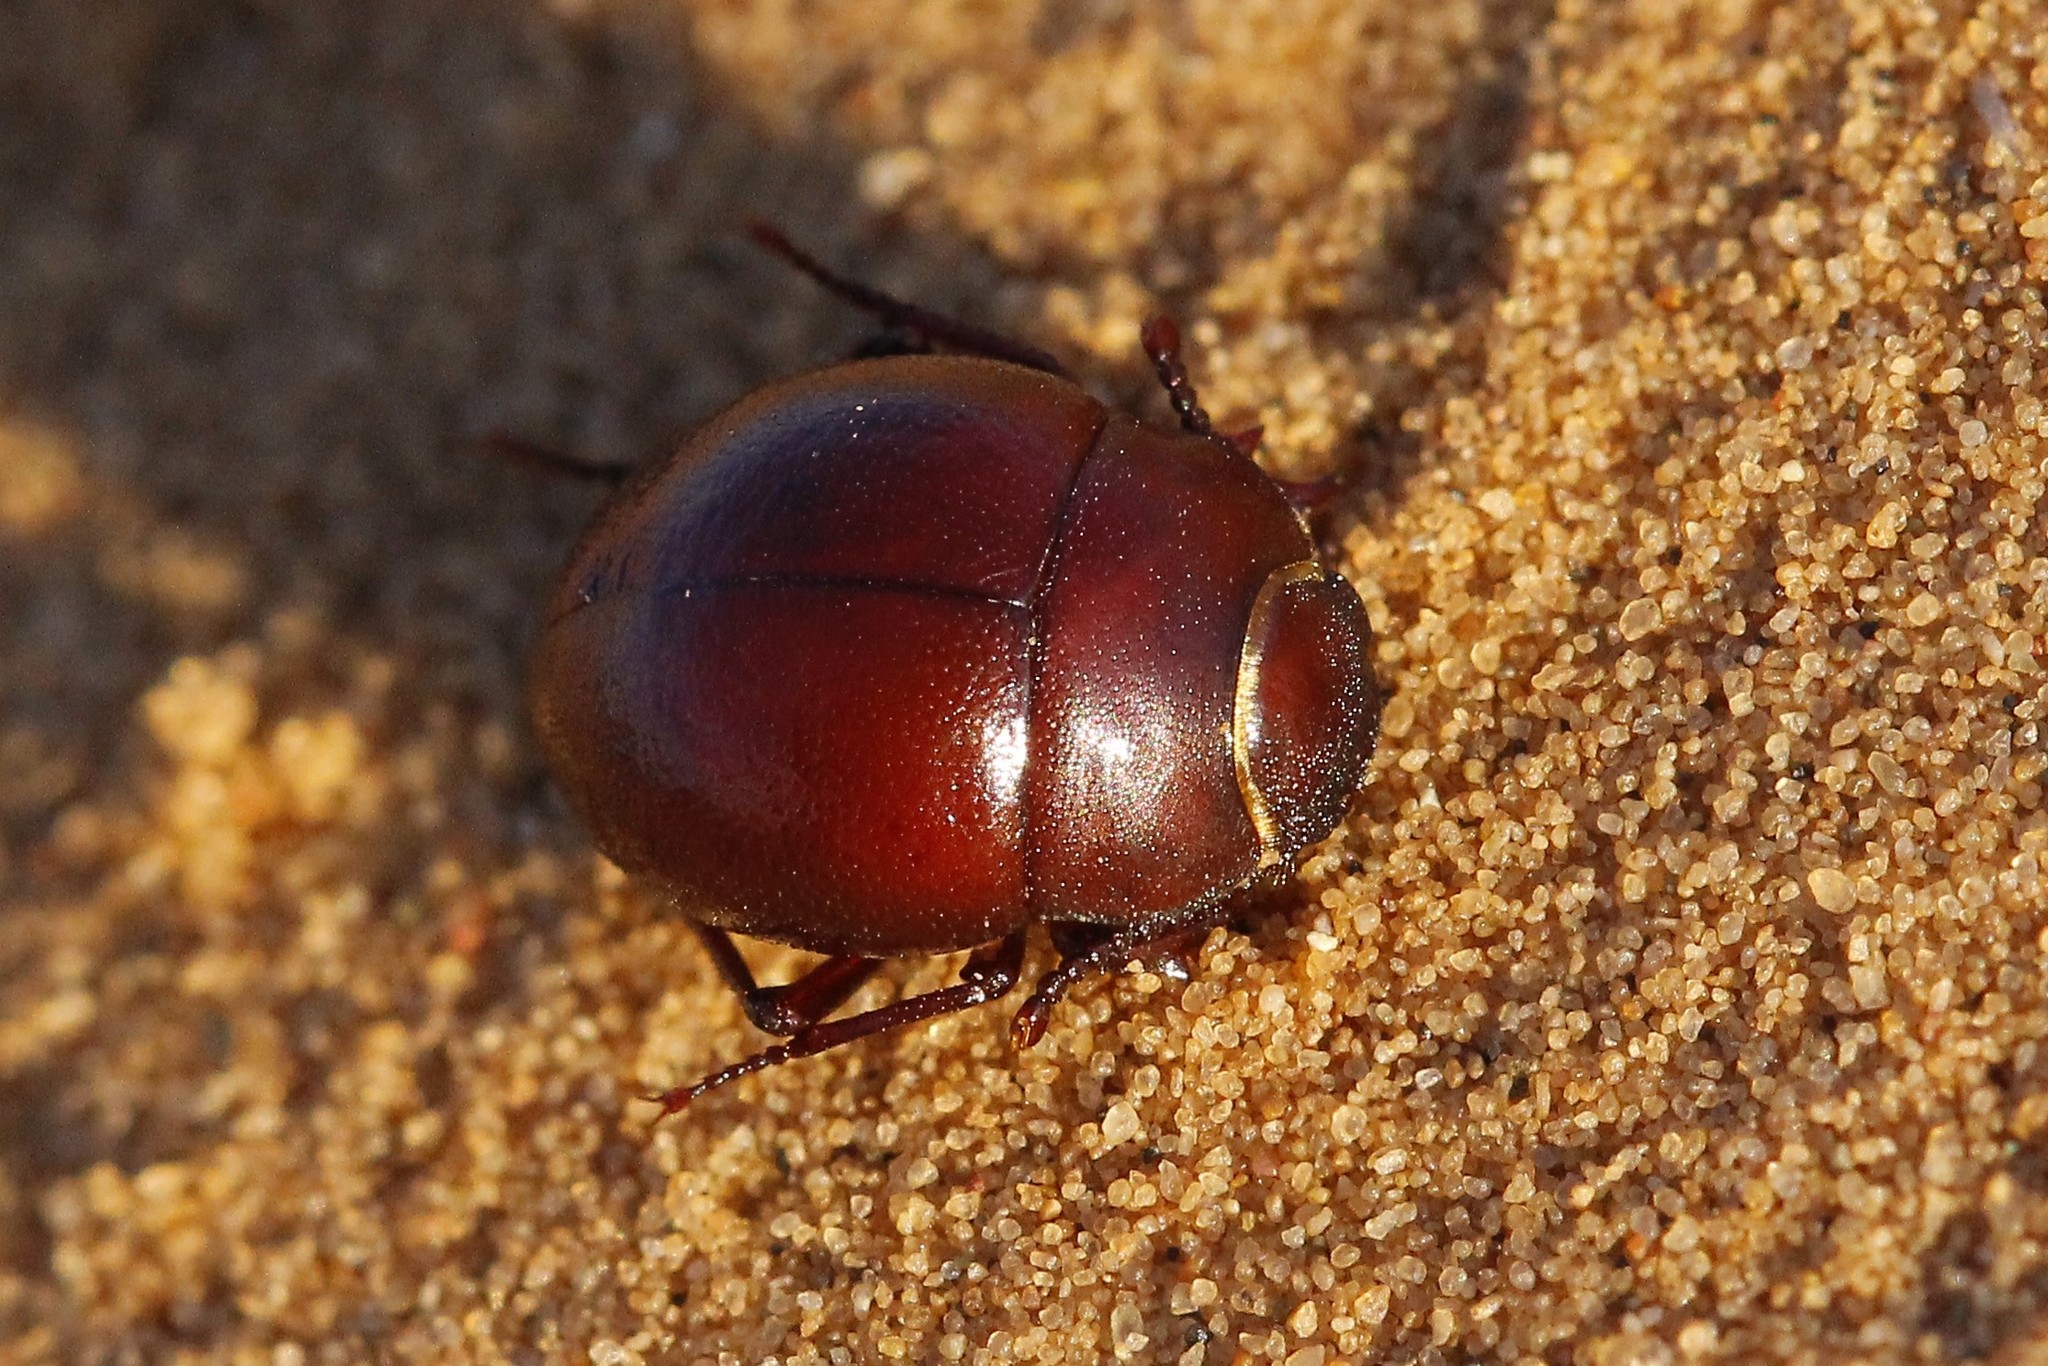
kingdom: Animalia
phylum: Arthropoda
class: Insecta
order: Coleoptera
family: Tenebrionidae
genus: Diaphanidus
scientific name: Diaphanidus
